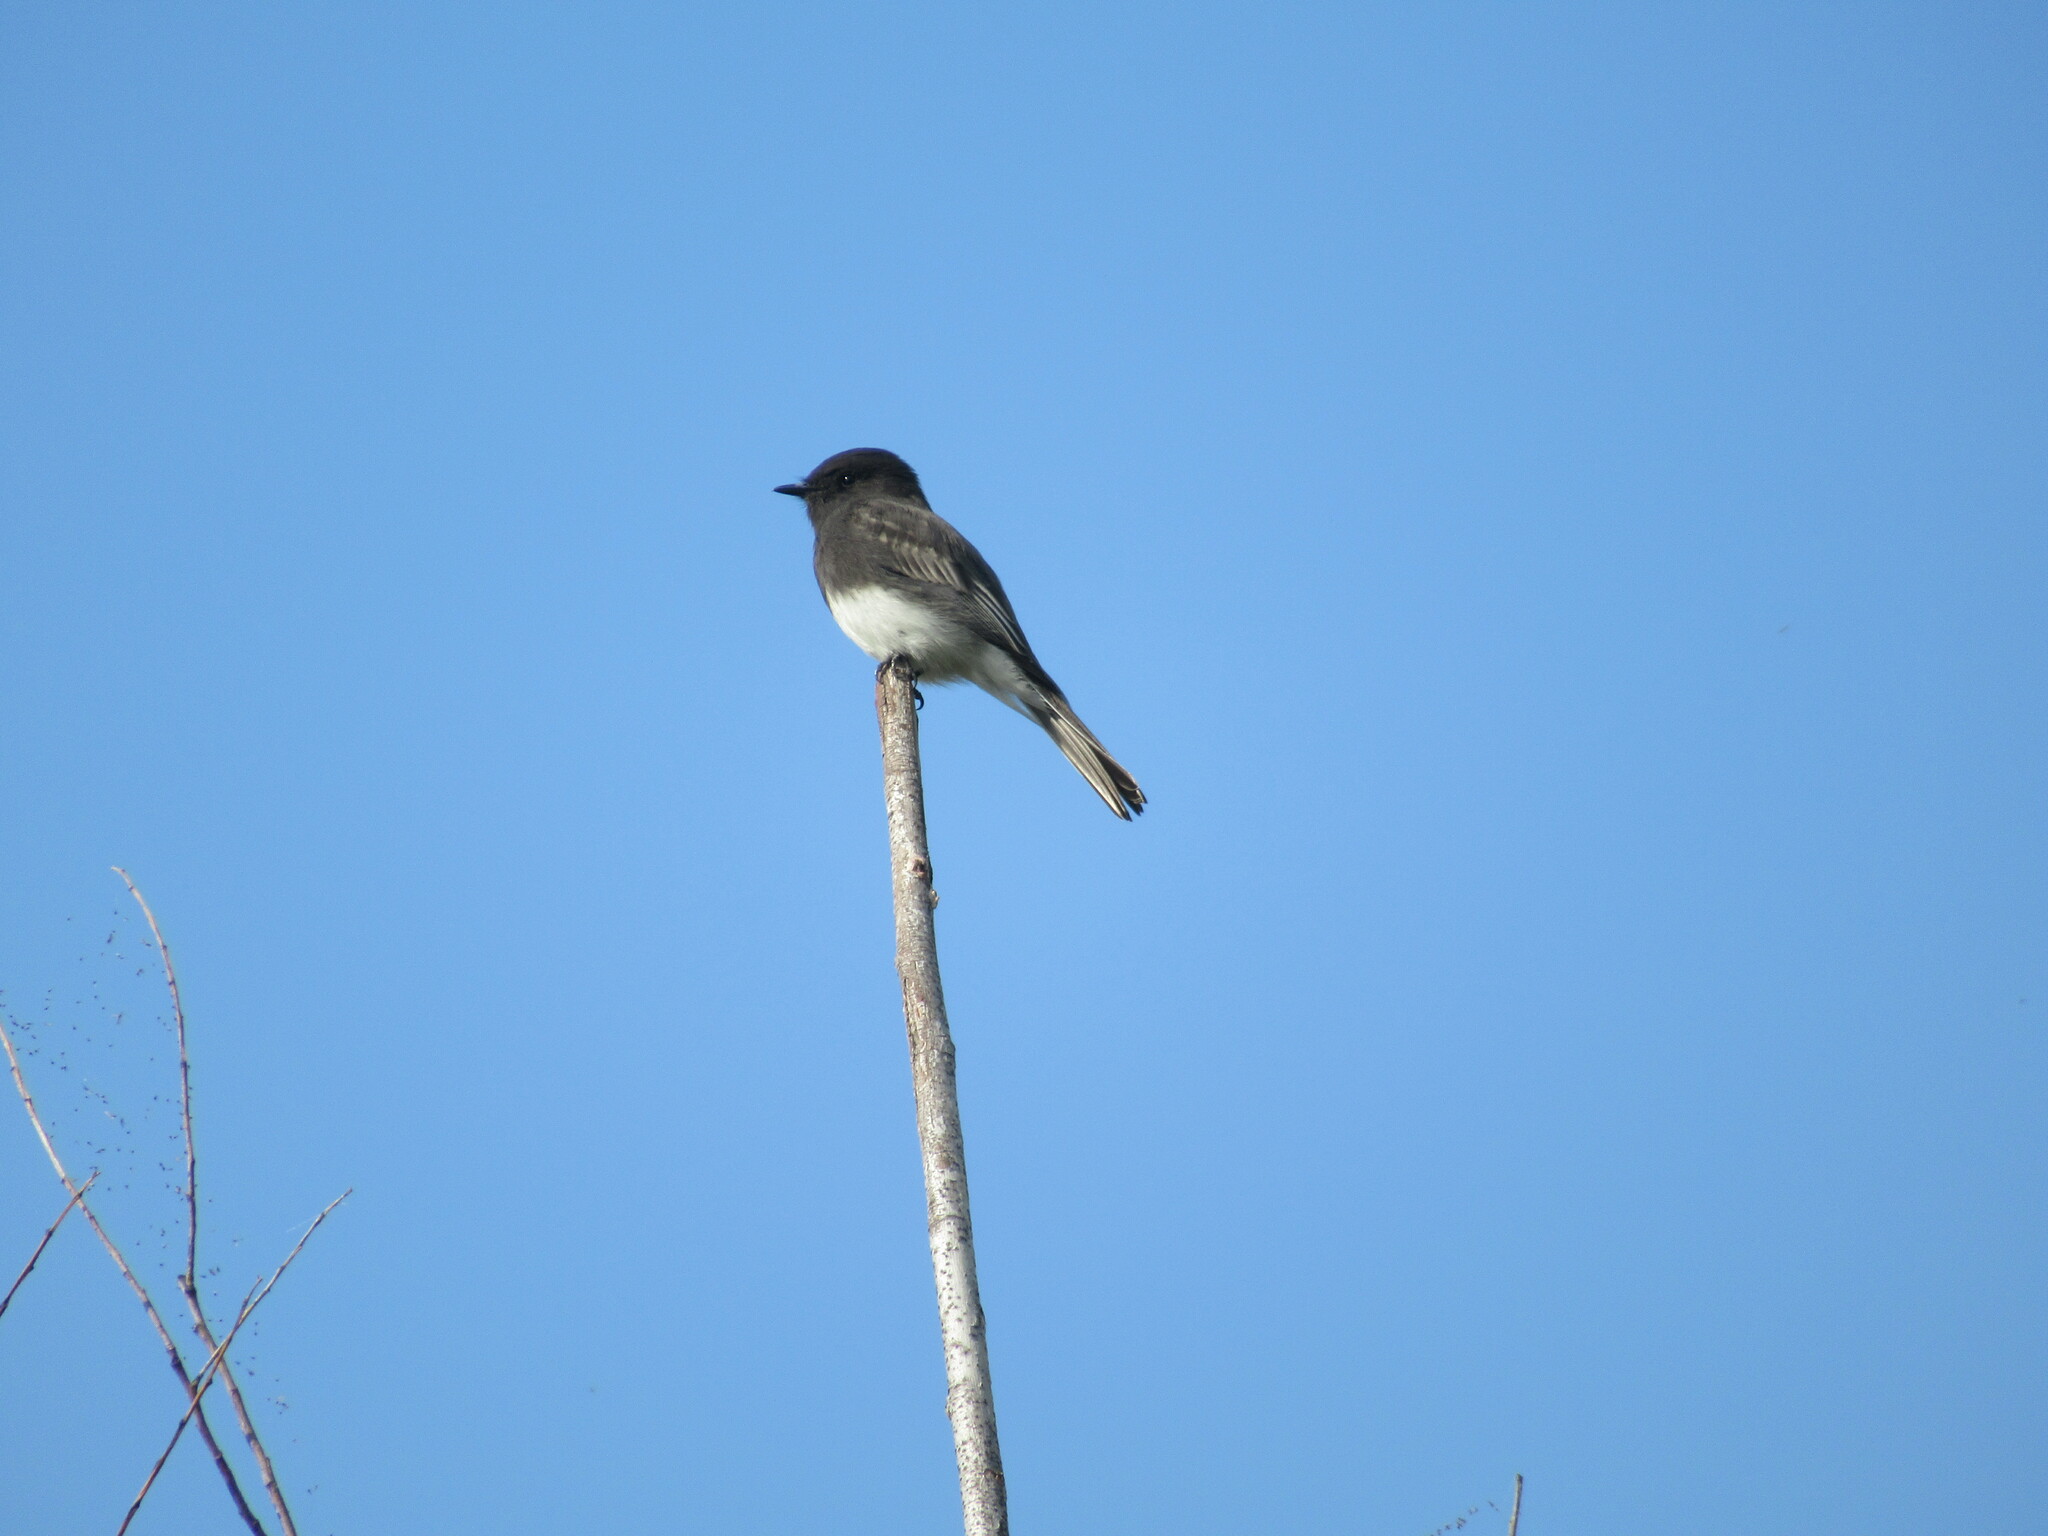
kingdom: Animalia
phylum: Chordata
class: Aves
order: Passeriformes
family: Tyrannidae
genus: Sayornis
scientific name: Sayornis nigricans
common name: Black phoebe
